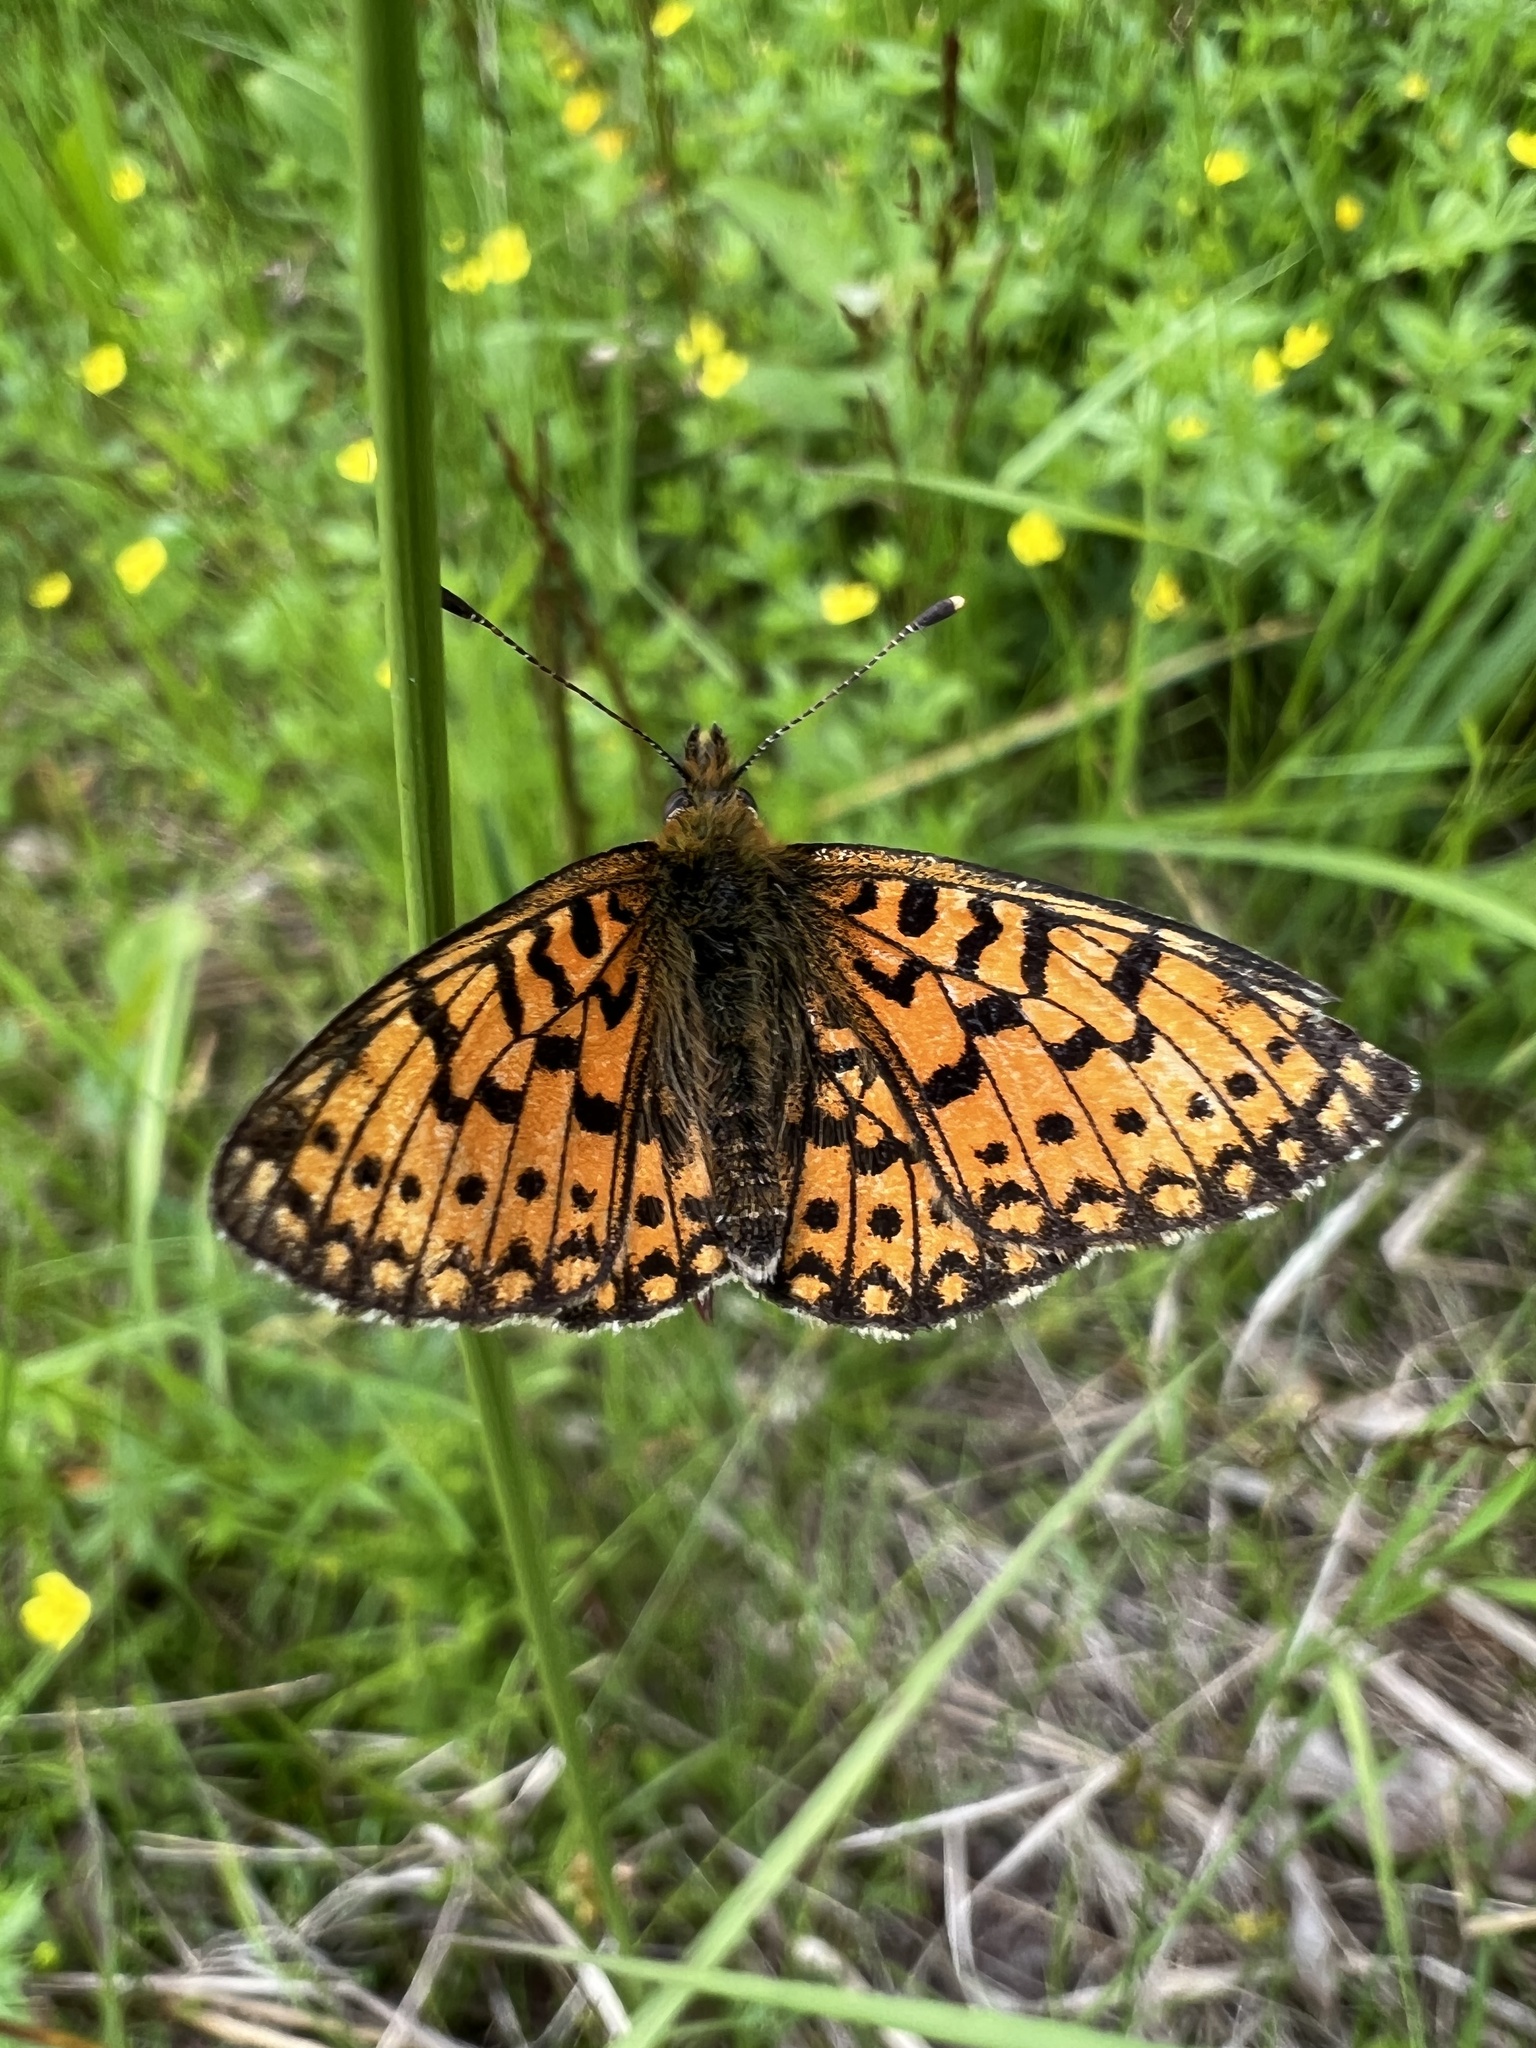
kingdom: Animalia
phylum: Arthropoda
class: Insecta
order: Lepidoptera
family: Nymphalidae
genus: Boloria
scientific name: Boloria selene
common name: Small pearl-bordered fritillary
